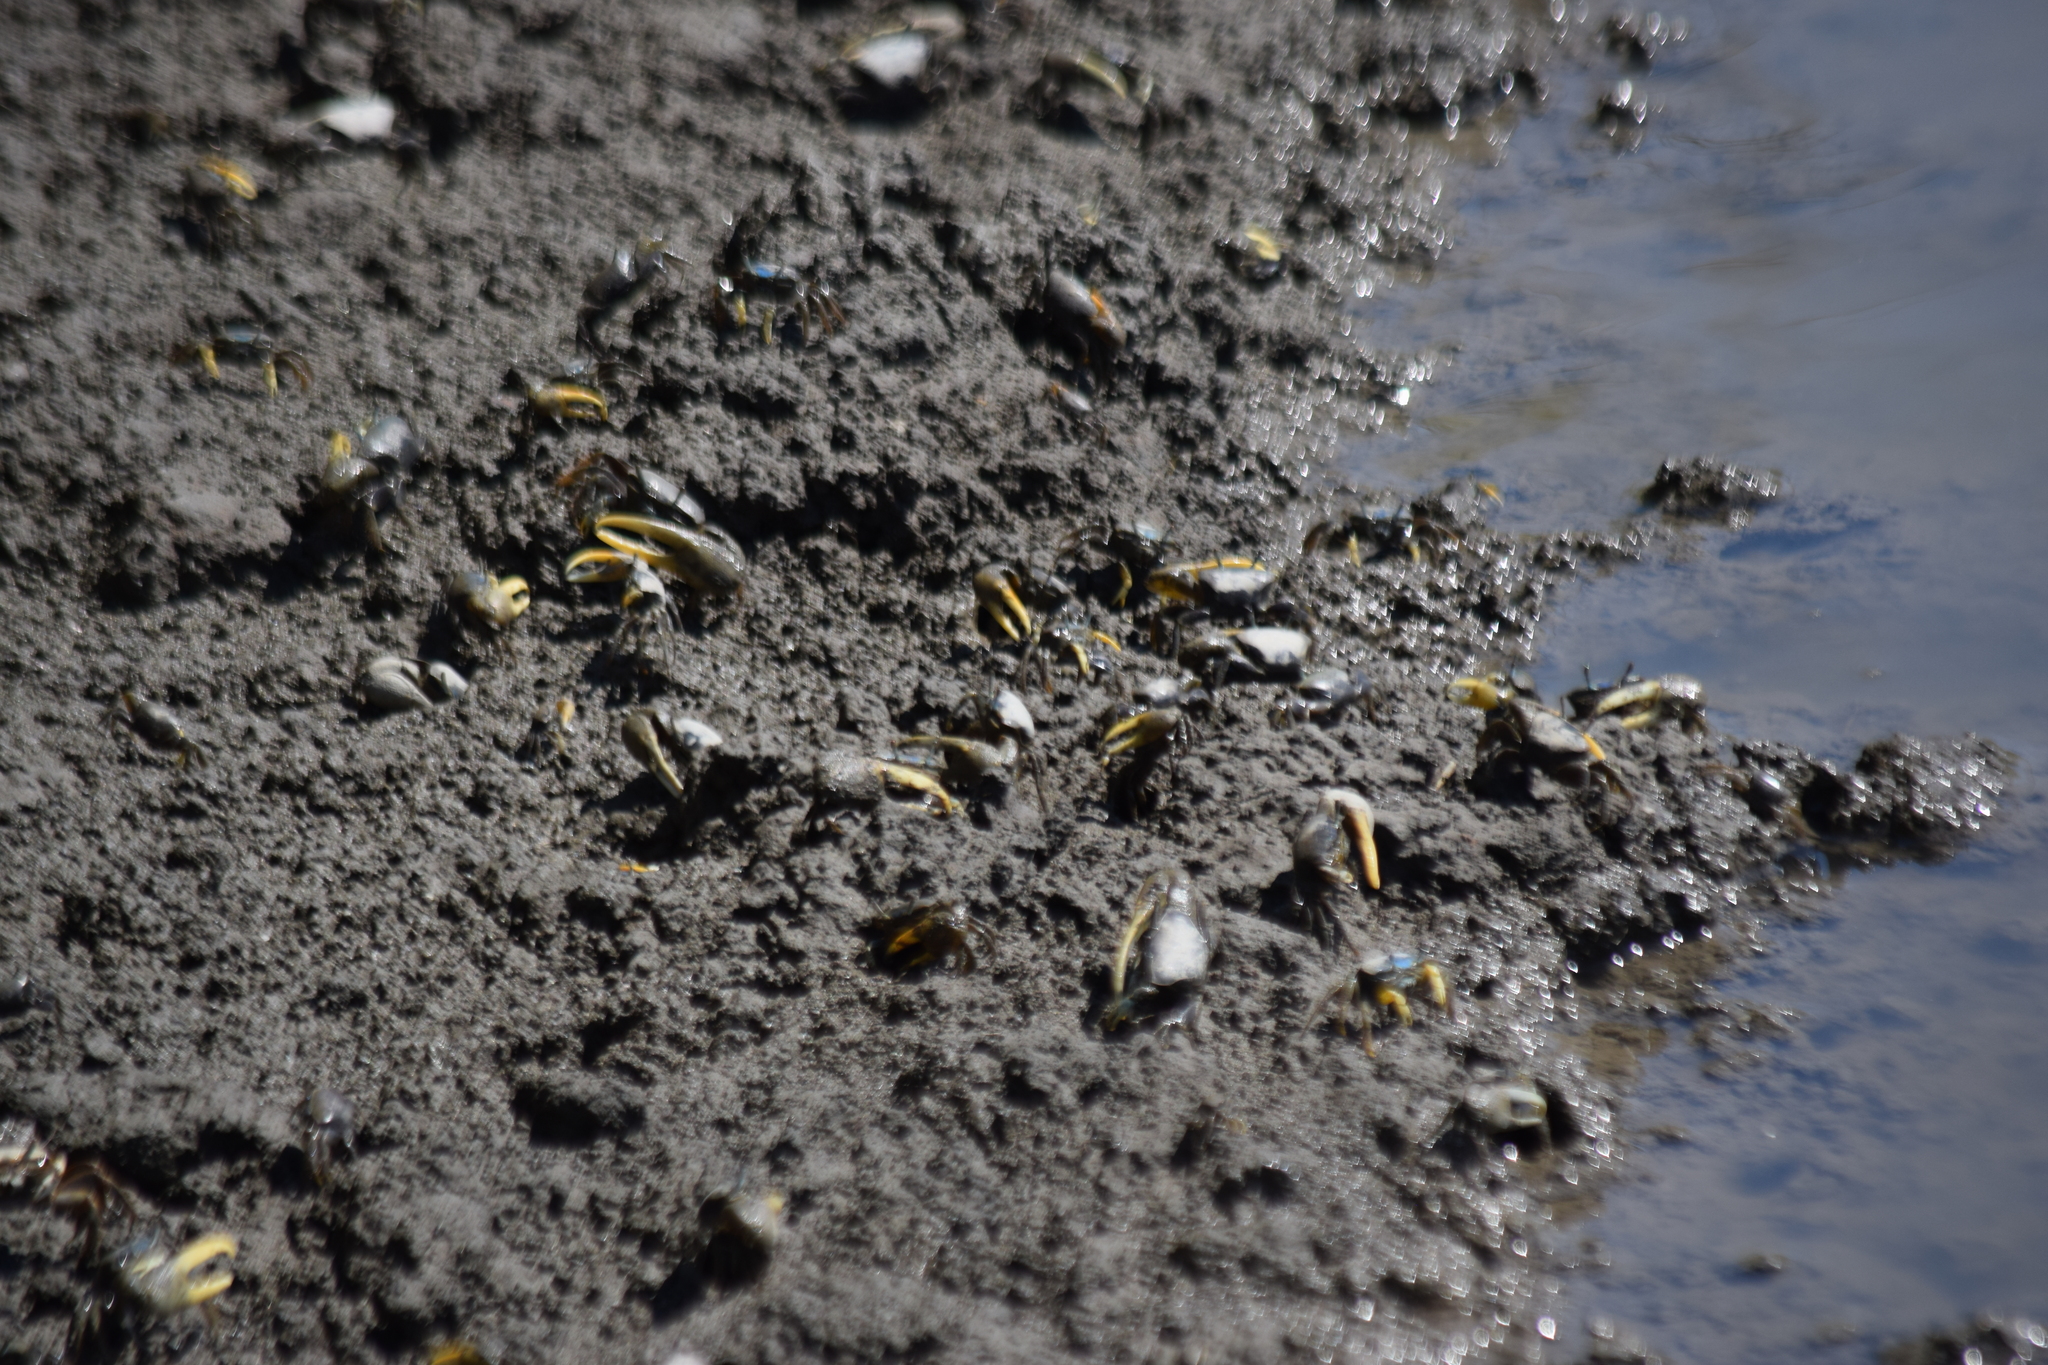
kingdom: Animalia
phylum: Arthropoda
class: Malacostraca
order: Decapoda
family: Ocypodidae
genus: Minuca
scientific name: Minuca pugnax
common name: Mud fiddler crab
